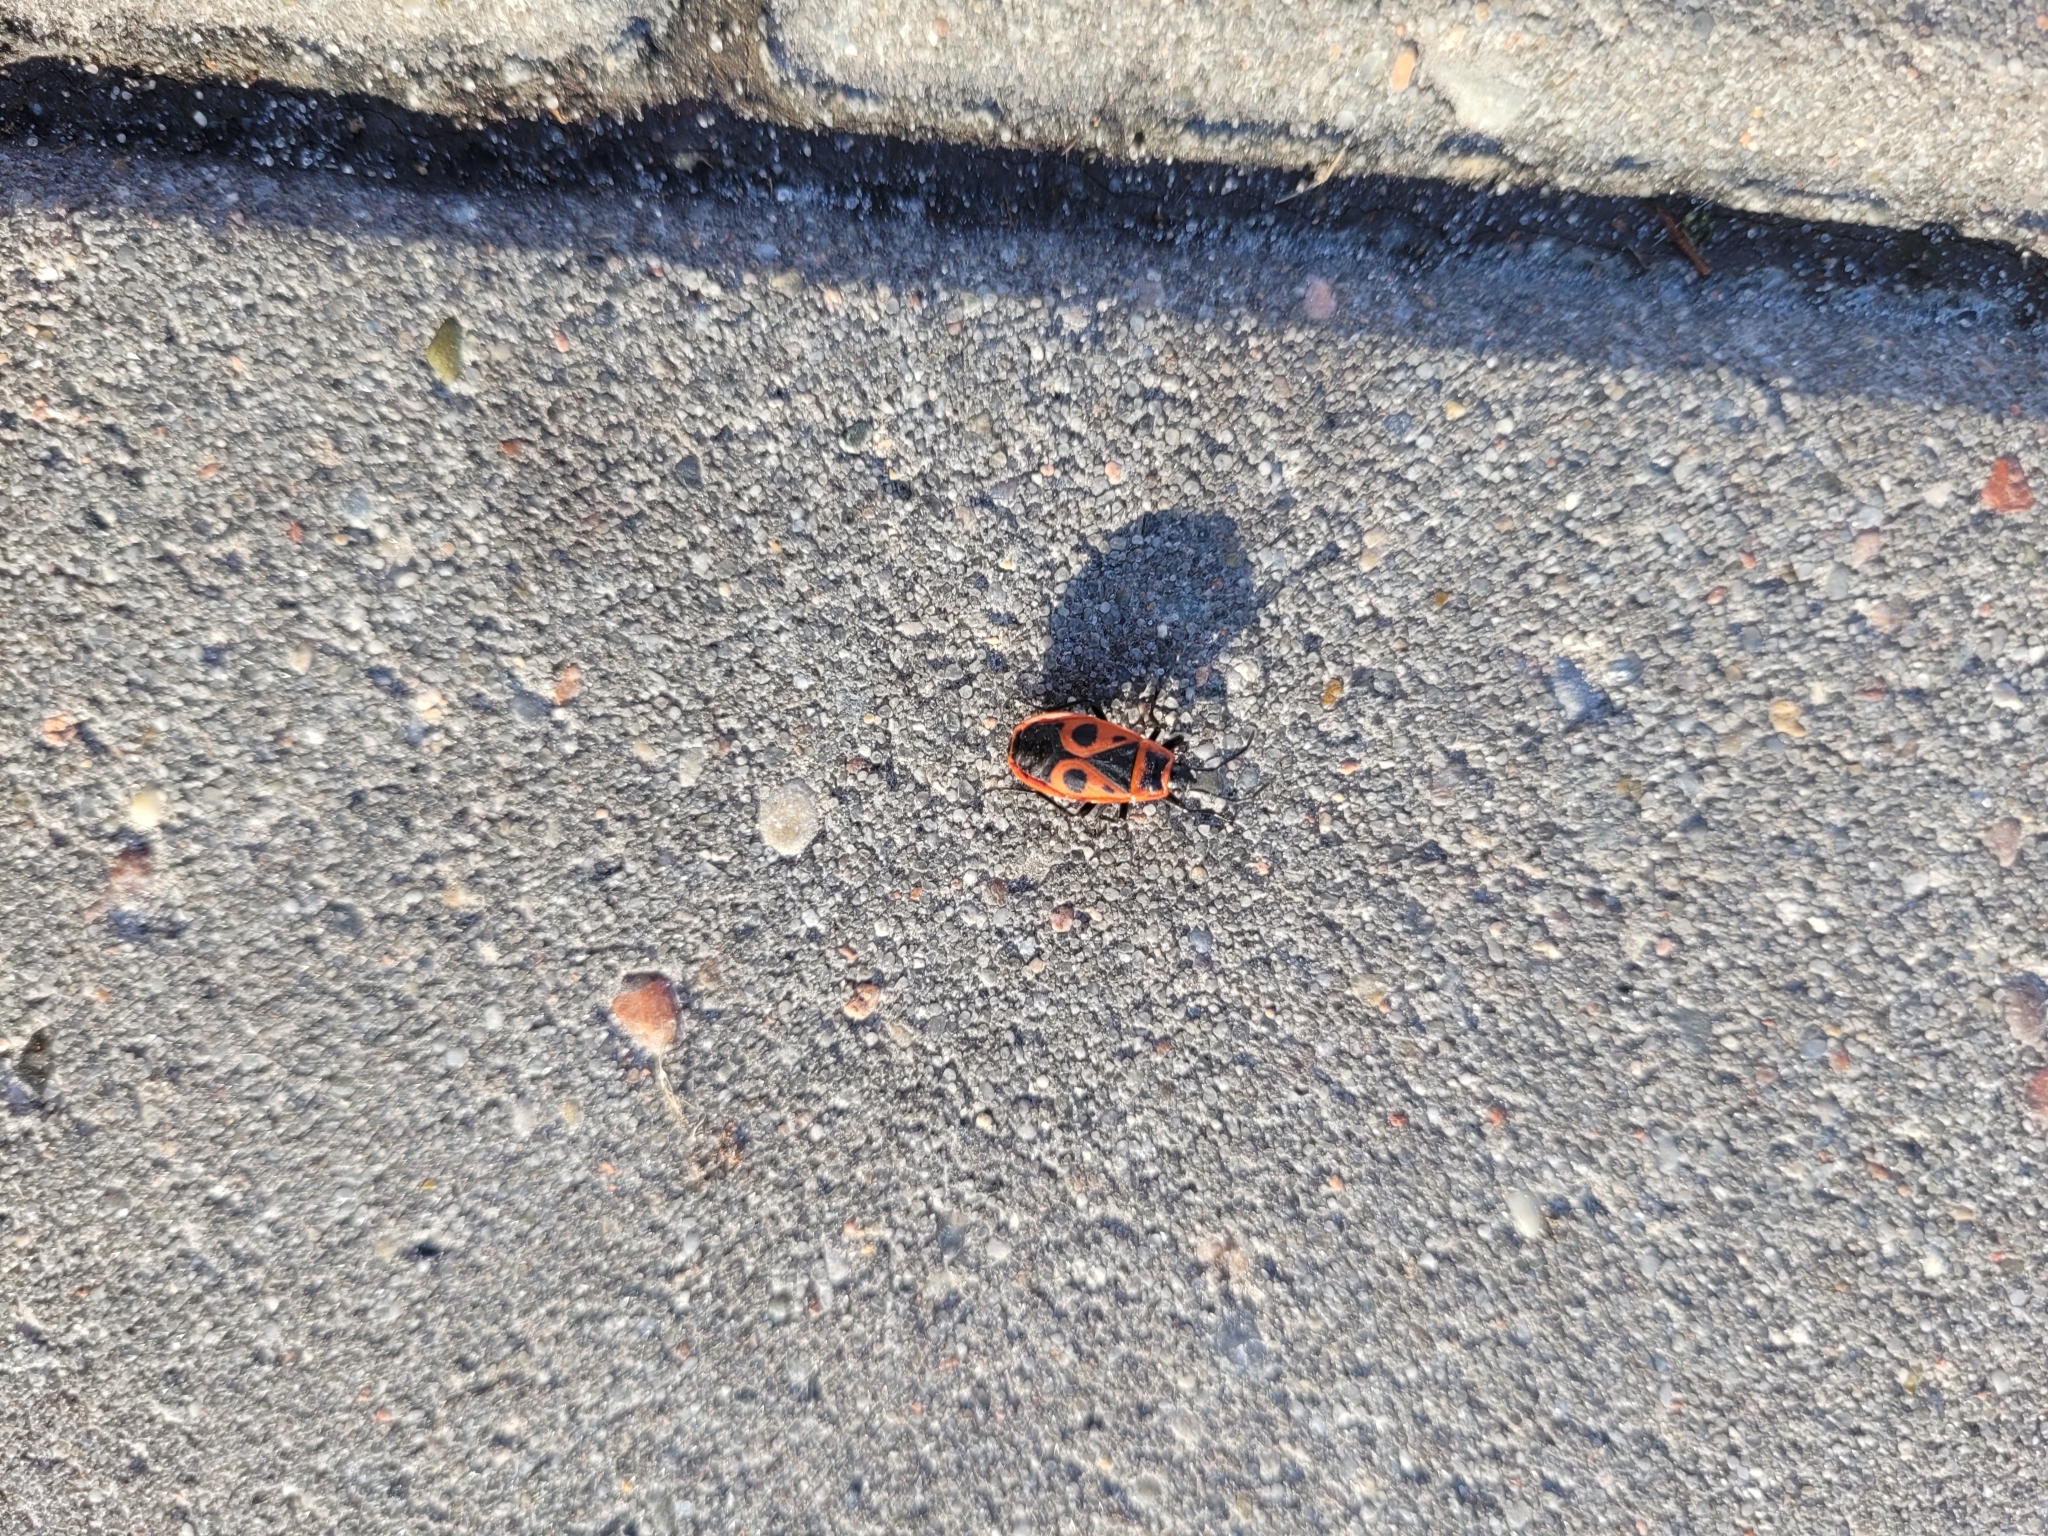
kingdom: Animalia
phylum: Arthropoda
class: Insecta
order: Hemiptera
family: Pyrrhocoridae
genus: Pyrrhocoris
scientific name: Pyrrhocoris apterus
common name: Firebug
